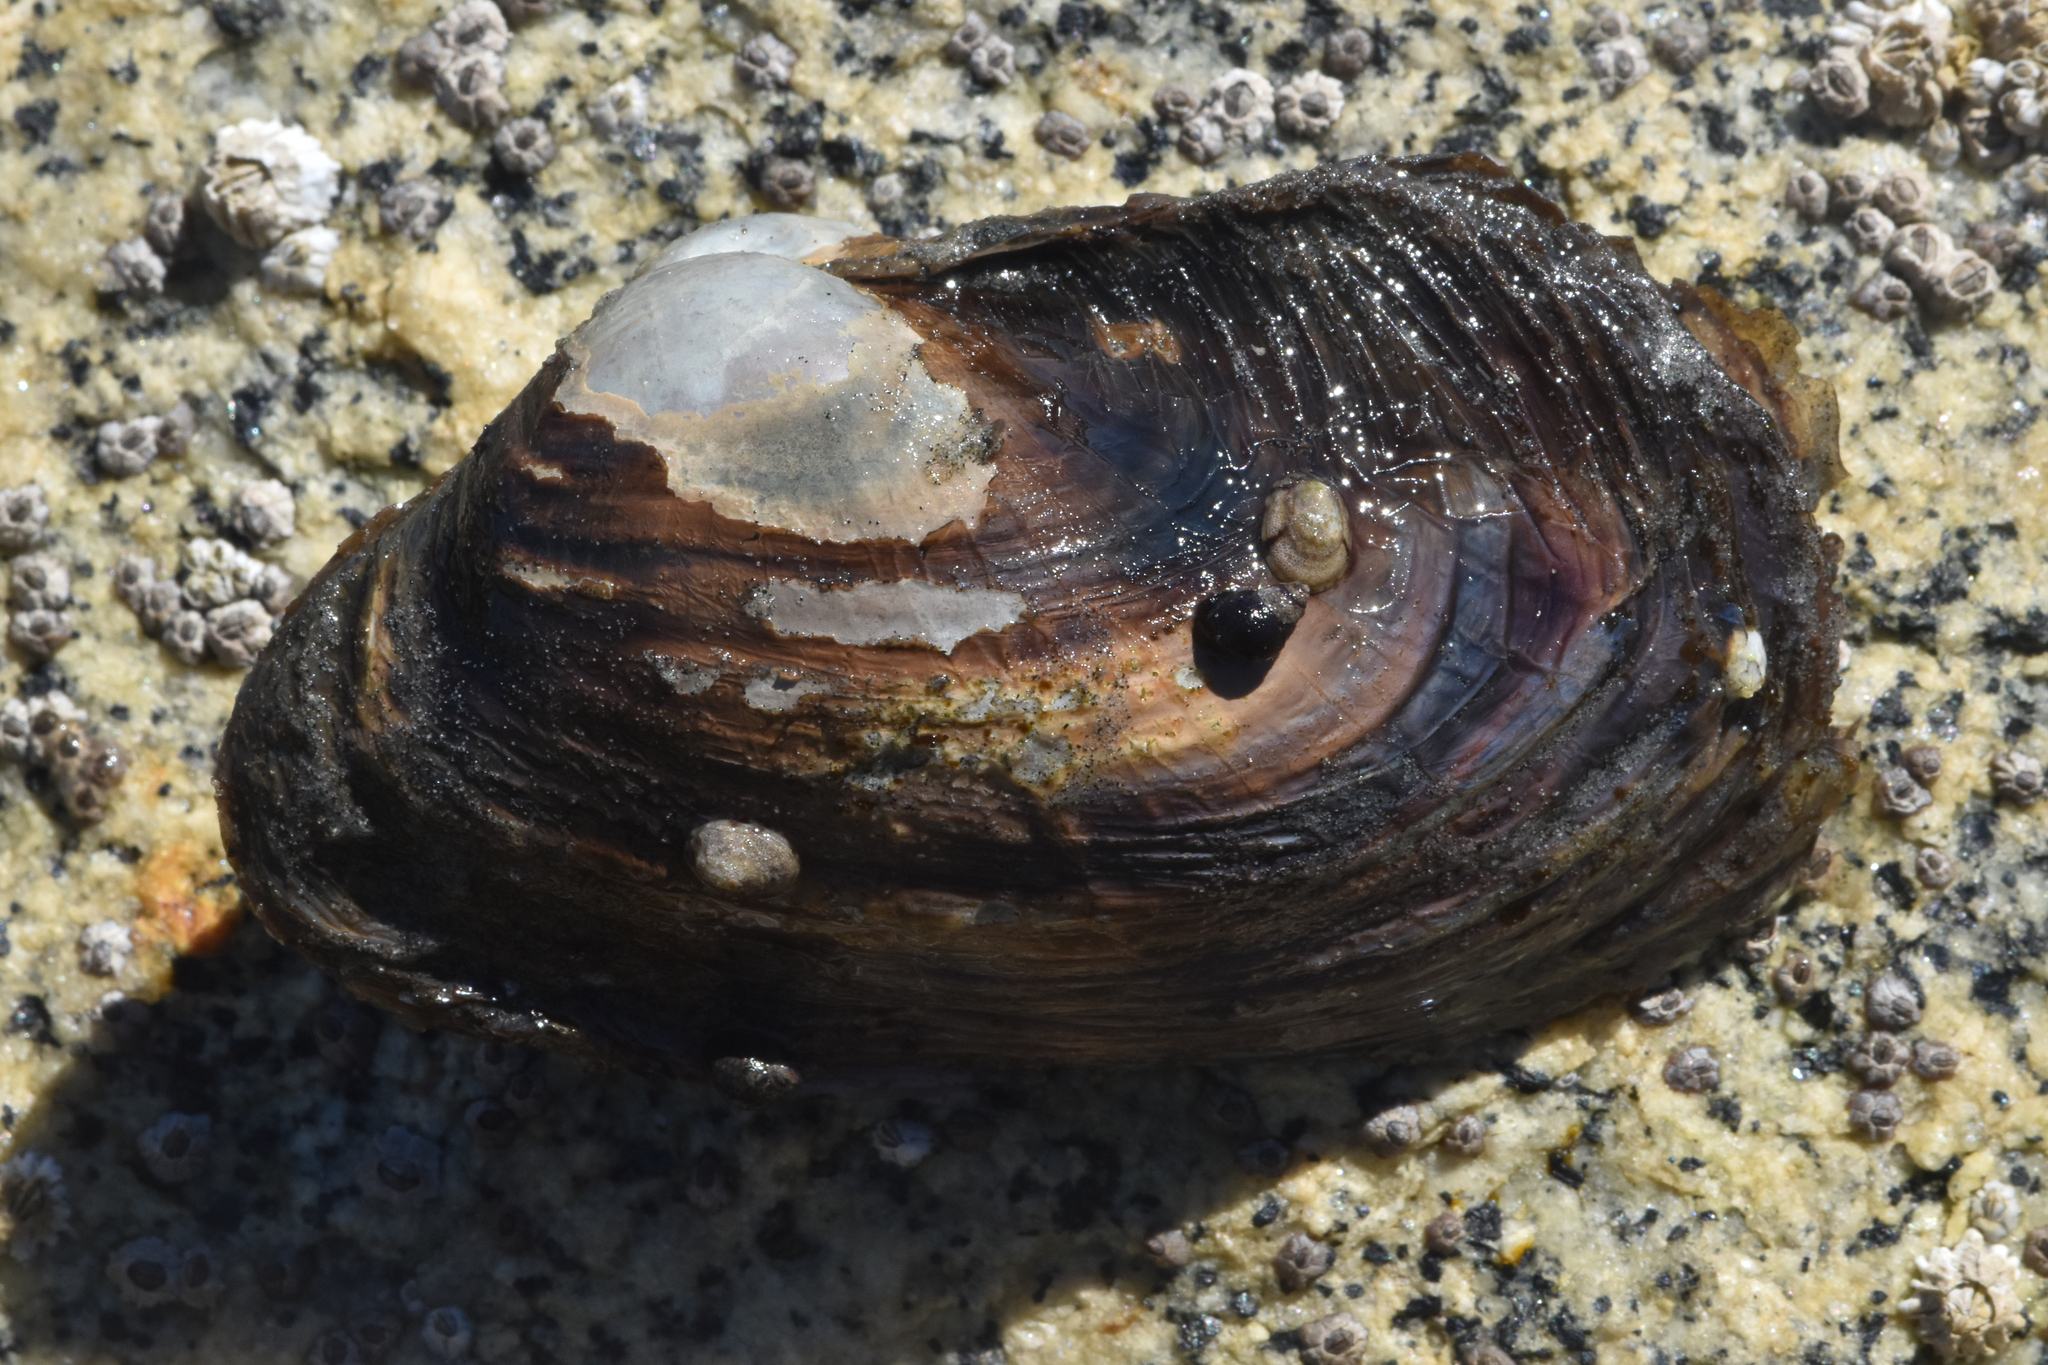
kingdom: Animalia
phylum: Mollusca
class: Bivalvia
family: Lyonsiidae
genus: Entodesma
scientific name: Entodesma navicula
